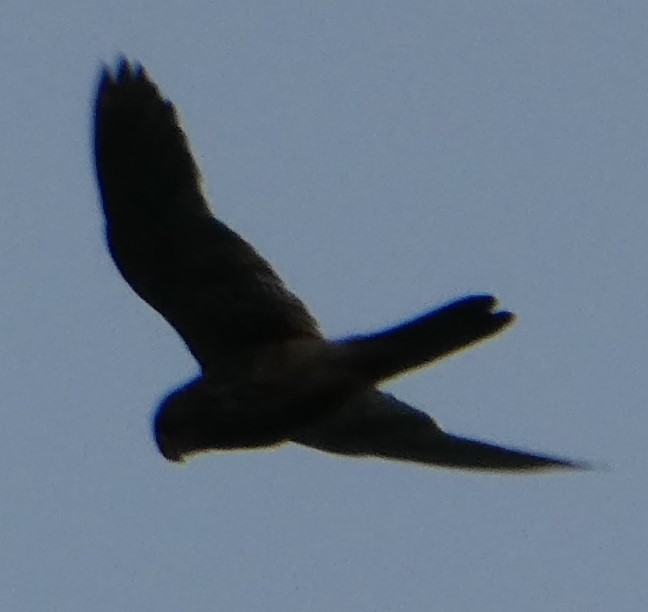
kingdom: Animalia
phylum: Chordata
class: Aves
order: Falconiformes
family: Falconidae
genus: Falco
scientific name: Falco tinnunculus
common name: Common kestrel
